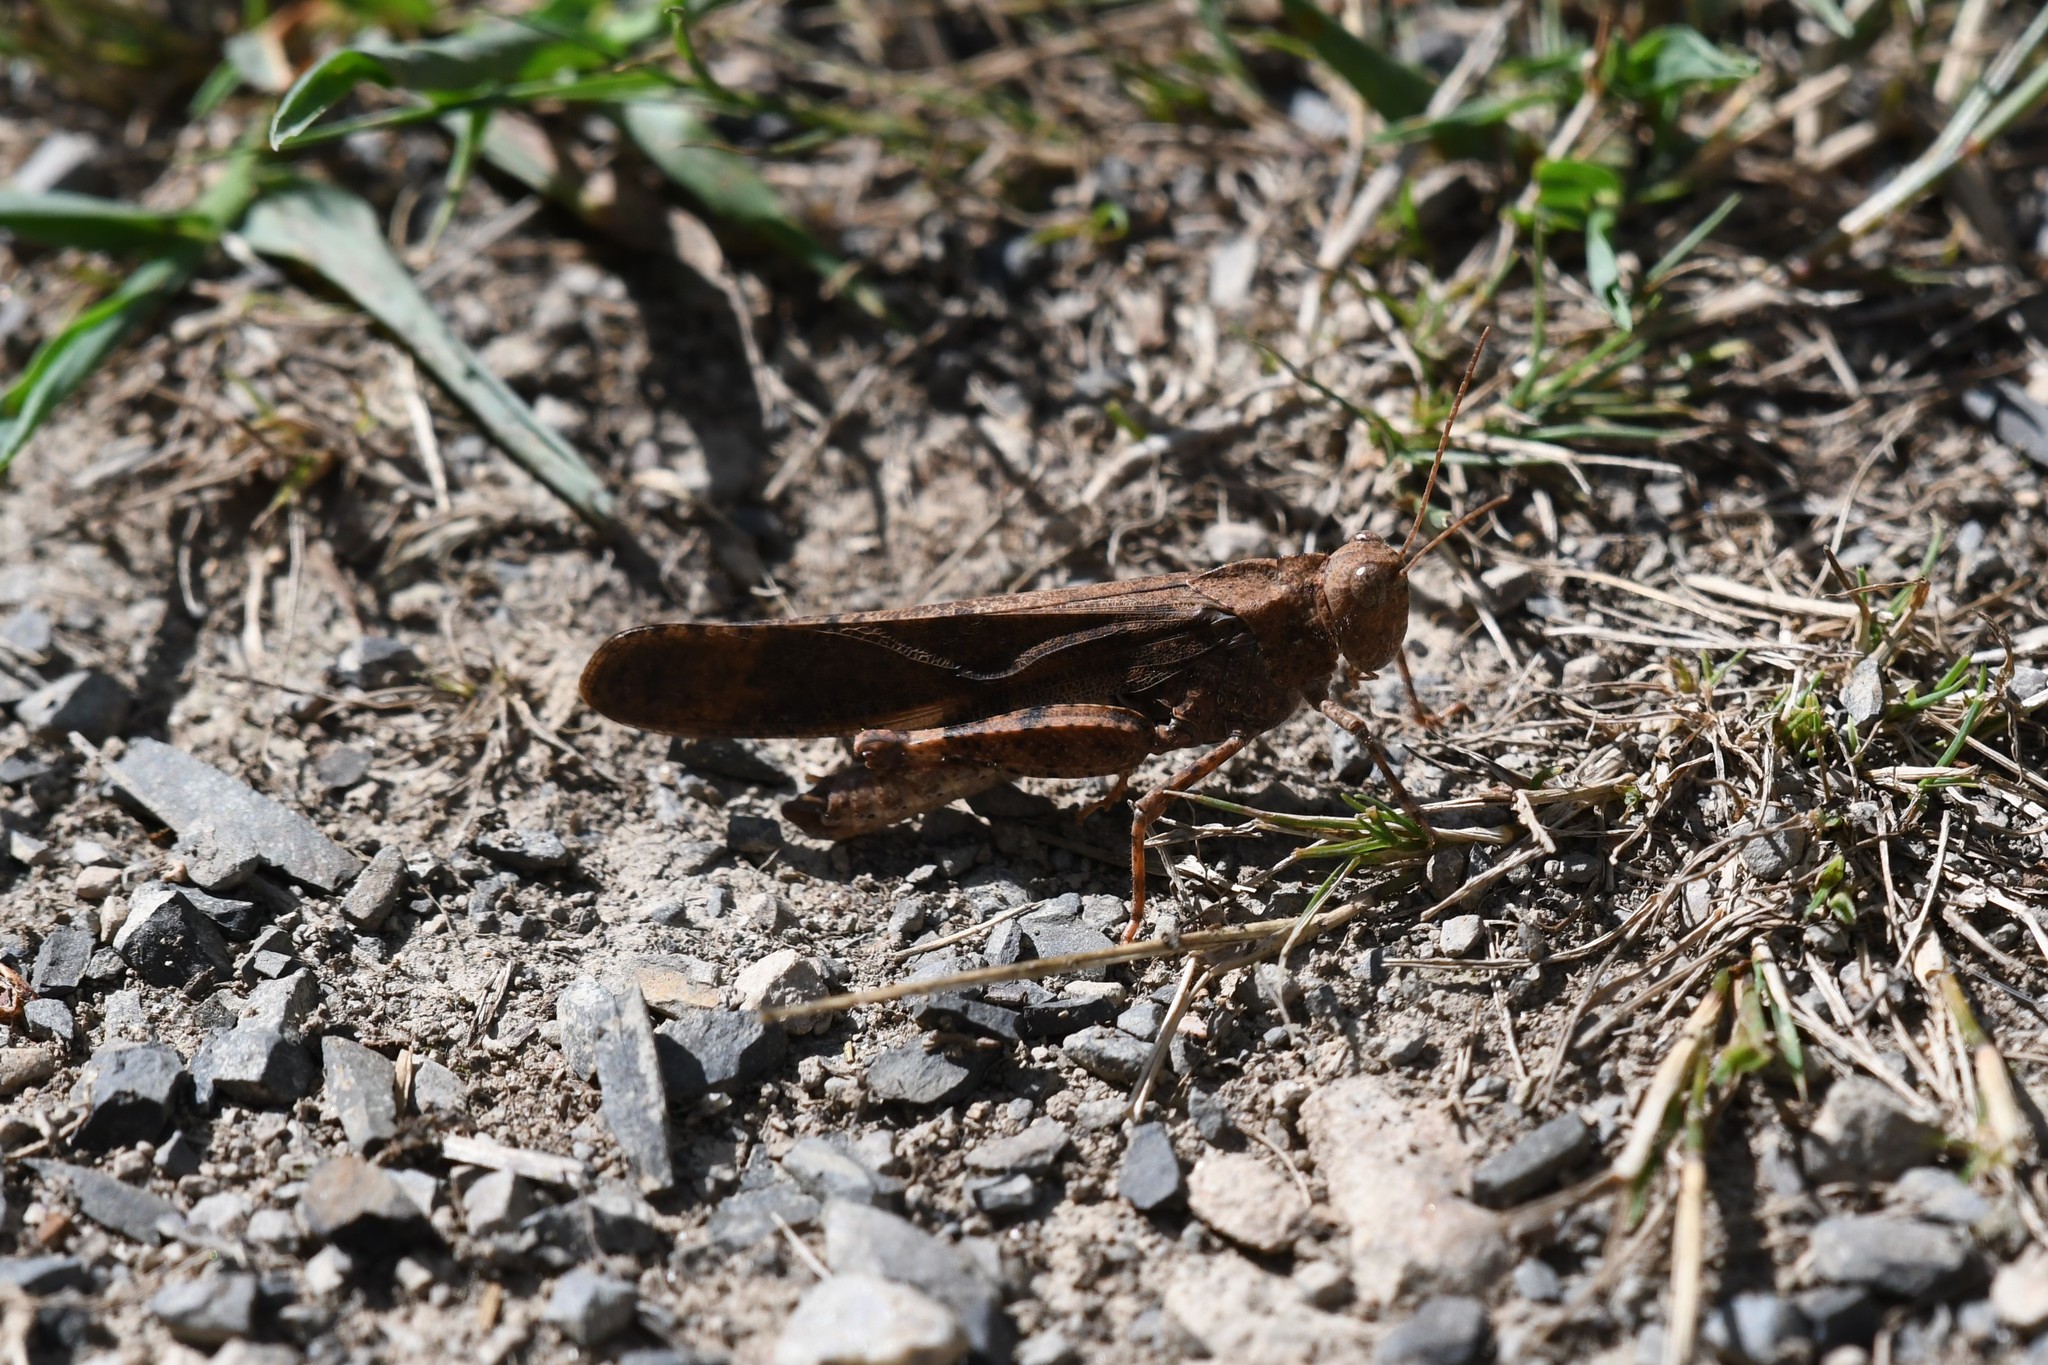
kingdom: Animalia
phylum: Arthropoda
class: Insecta
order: Orthoptera
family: Acrididae
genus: Dissosteira
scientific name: Dissosteira carolina
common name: Carolina grasshopper
